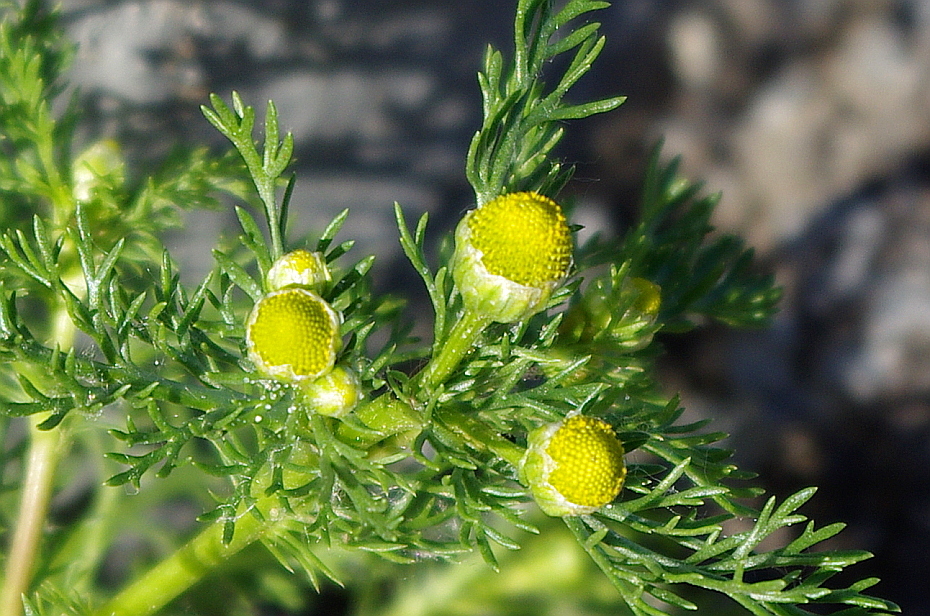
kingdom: Plantae
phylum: Tracheophyta
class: Magnoliopsida
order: Asterales
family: Asteraceae
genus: Matricaria
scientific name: Matricaria discoidea
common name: Disc mayweed
